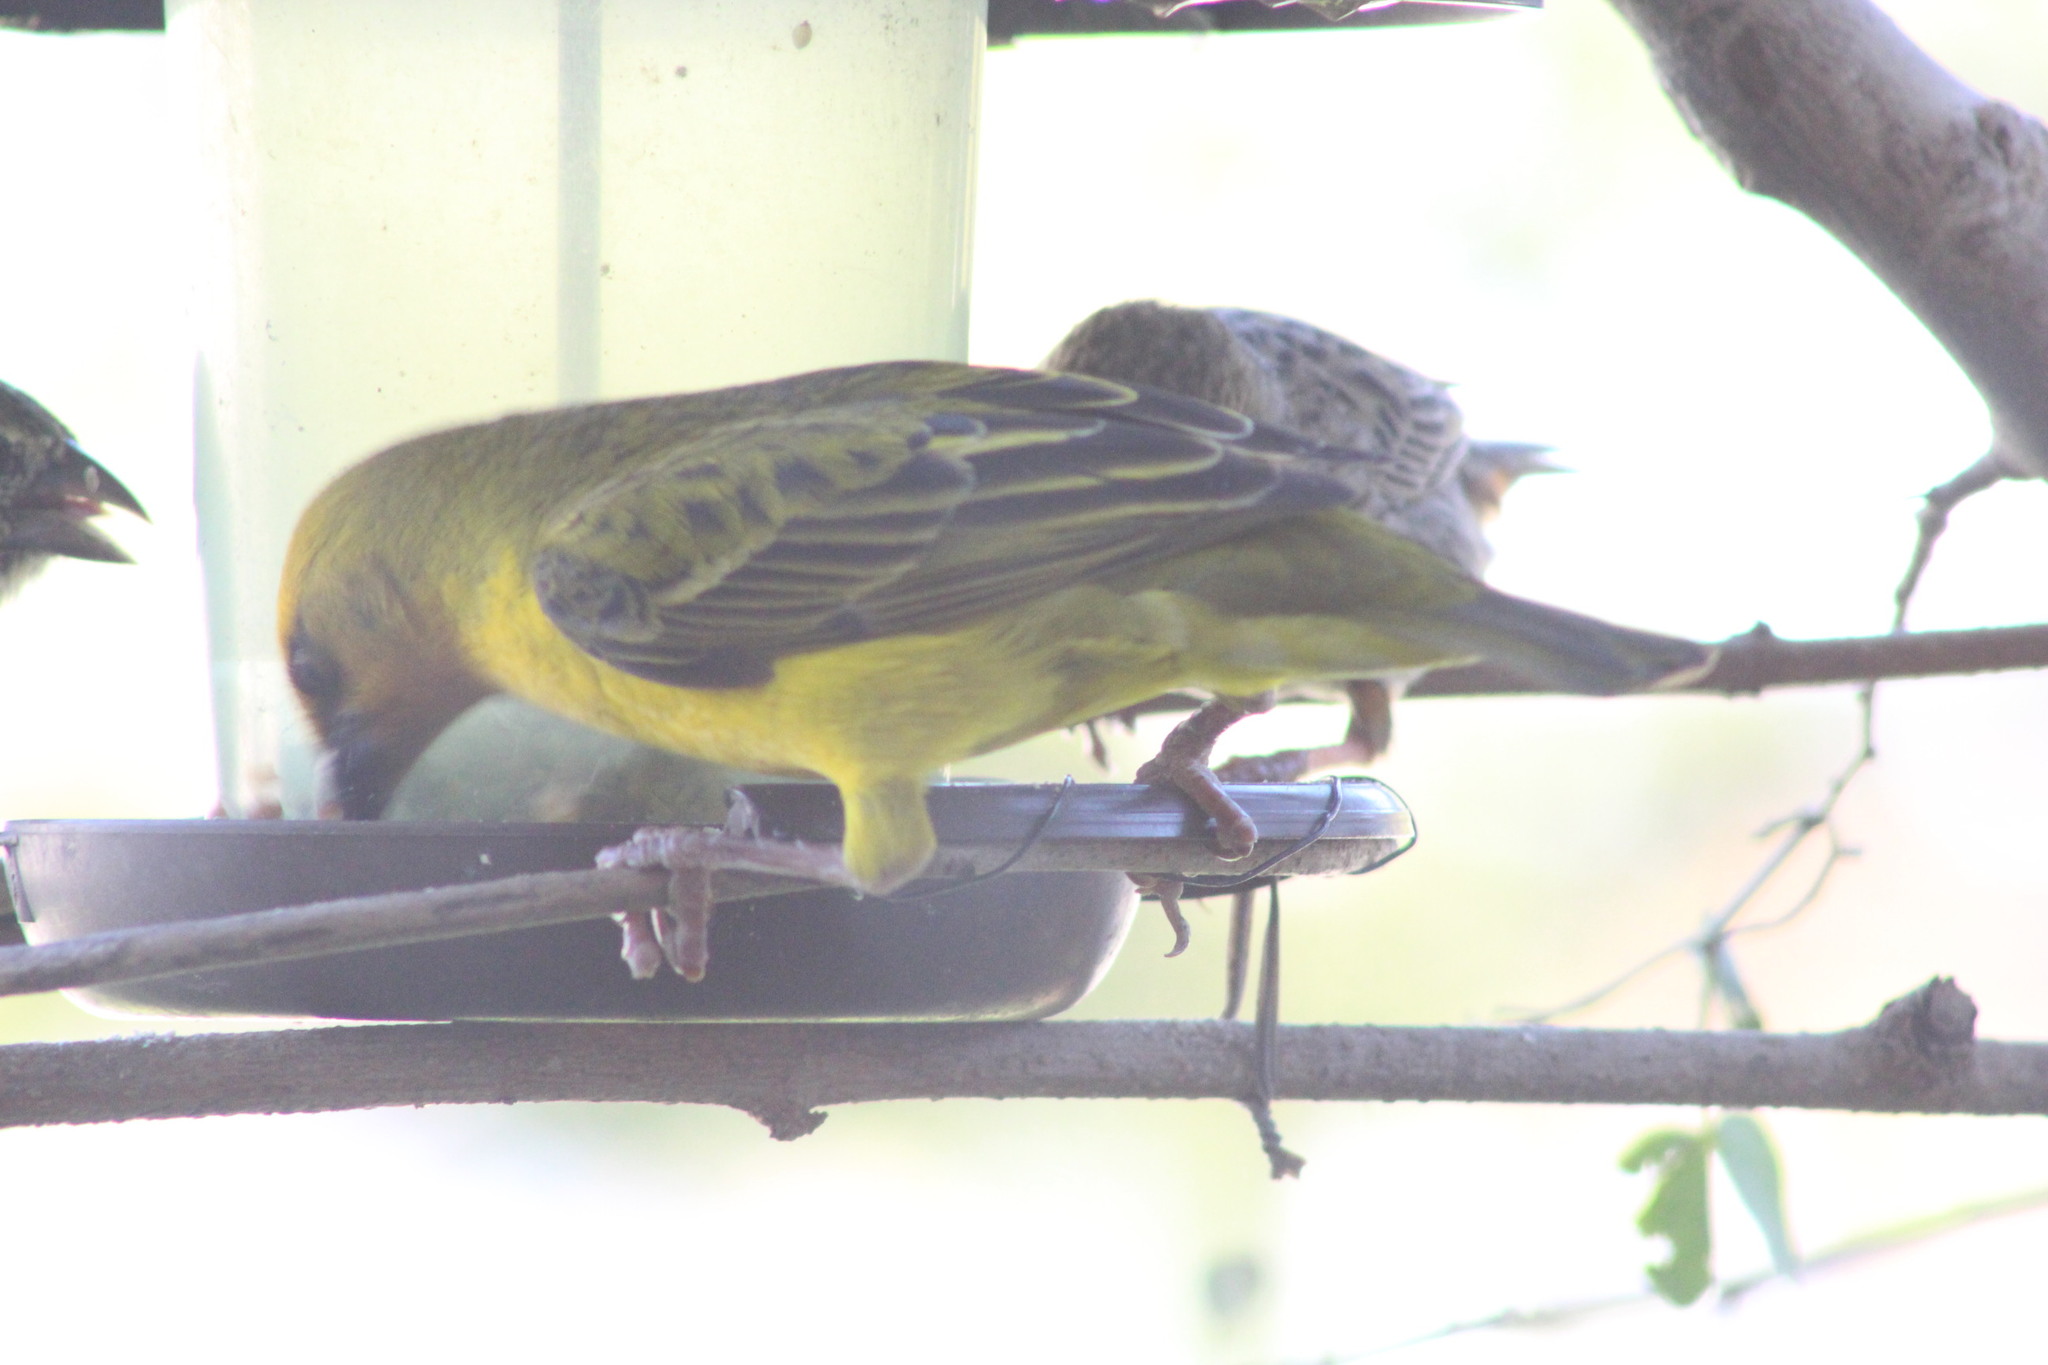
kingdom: Animalia
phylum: Chordata
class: Aves
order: Passeriformes
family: Ploceidae
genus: Ploceus
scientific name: Ploceus capensis
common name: Cape weaver
